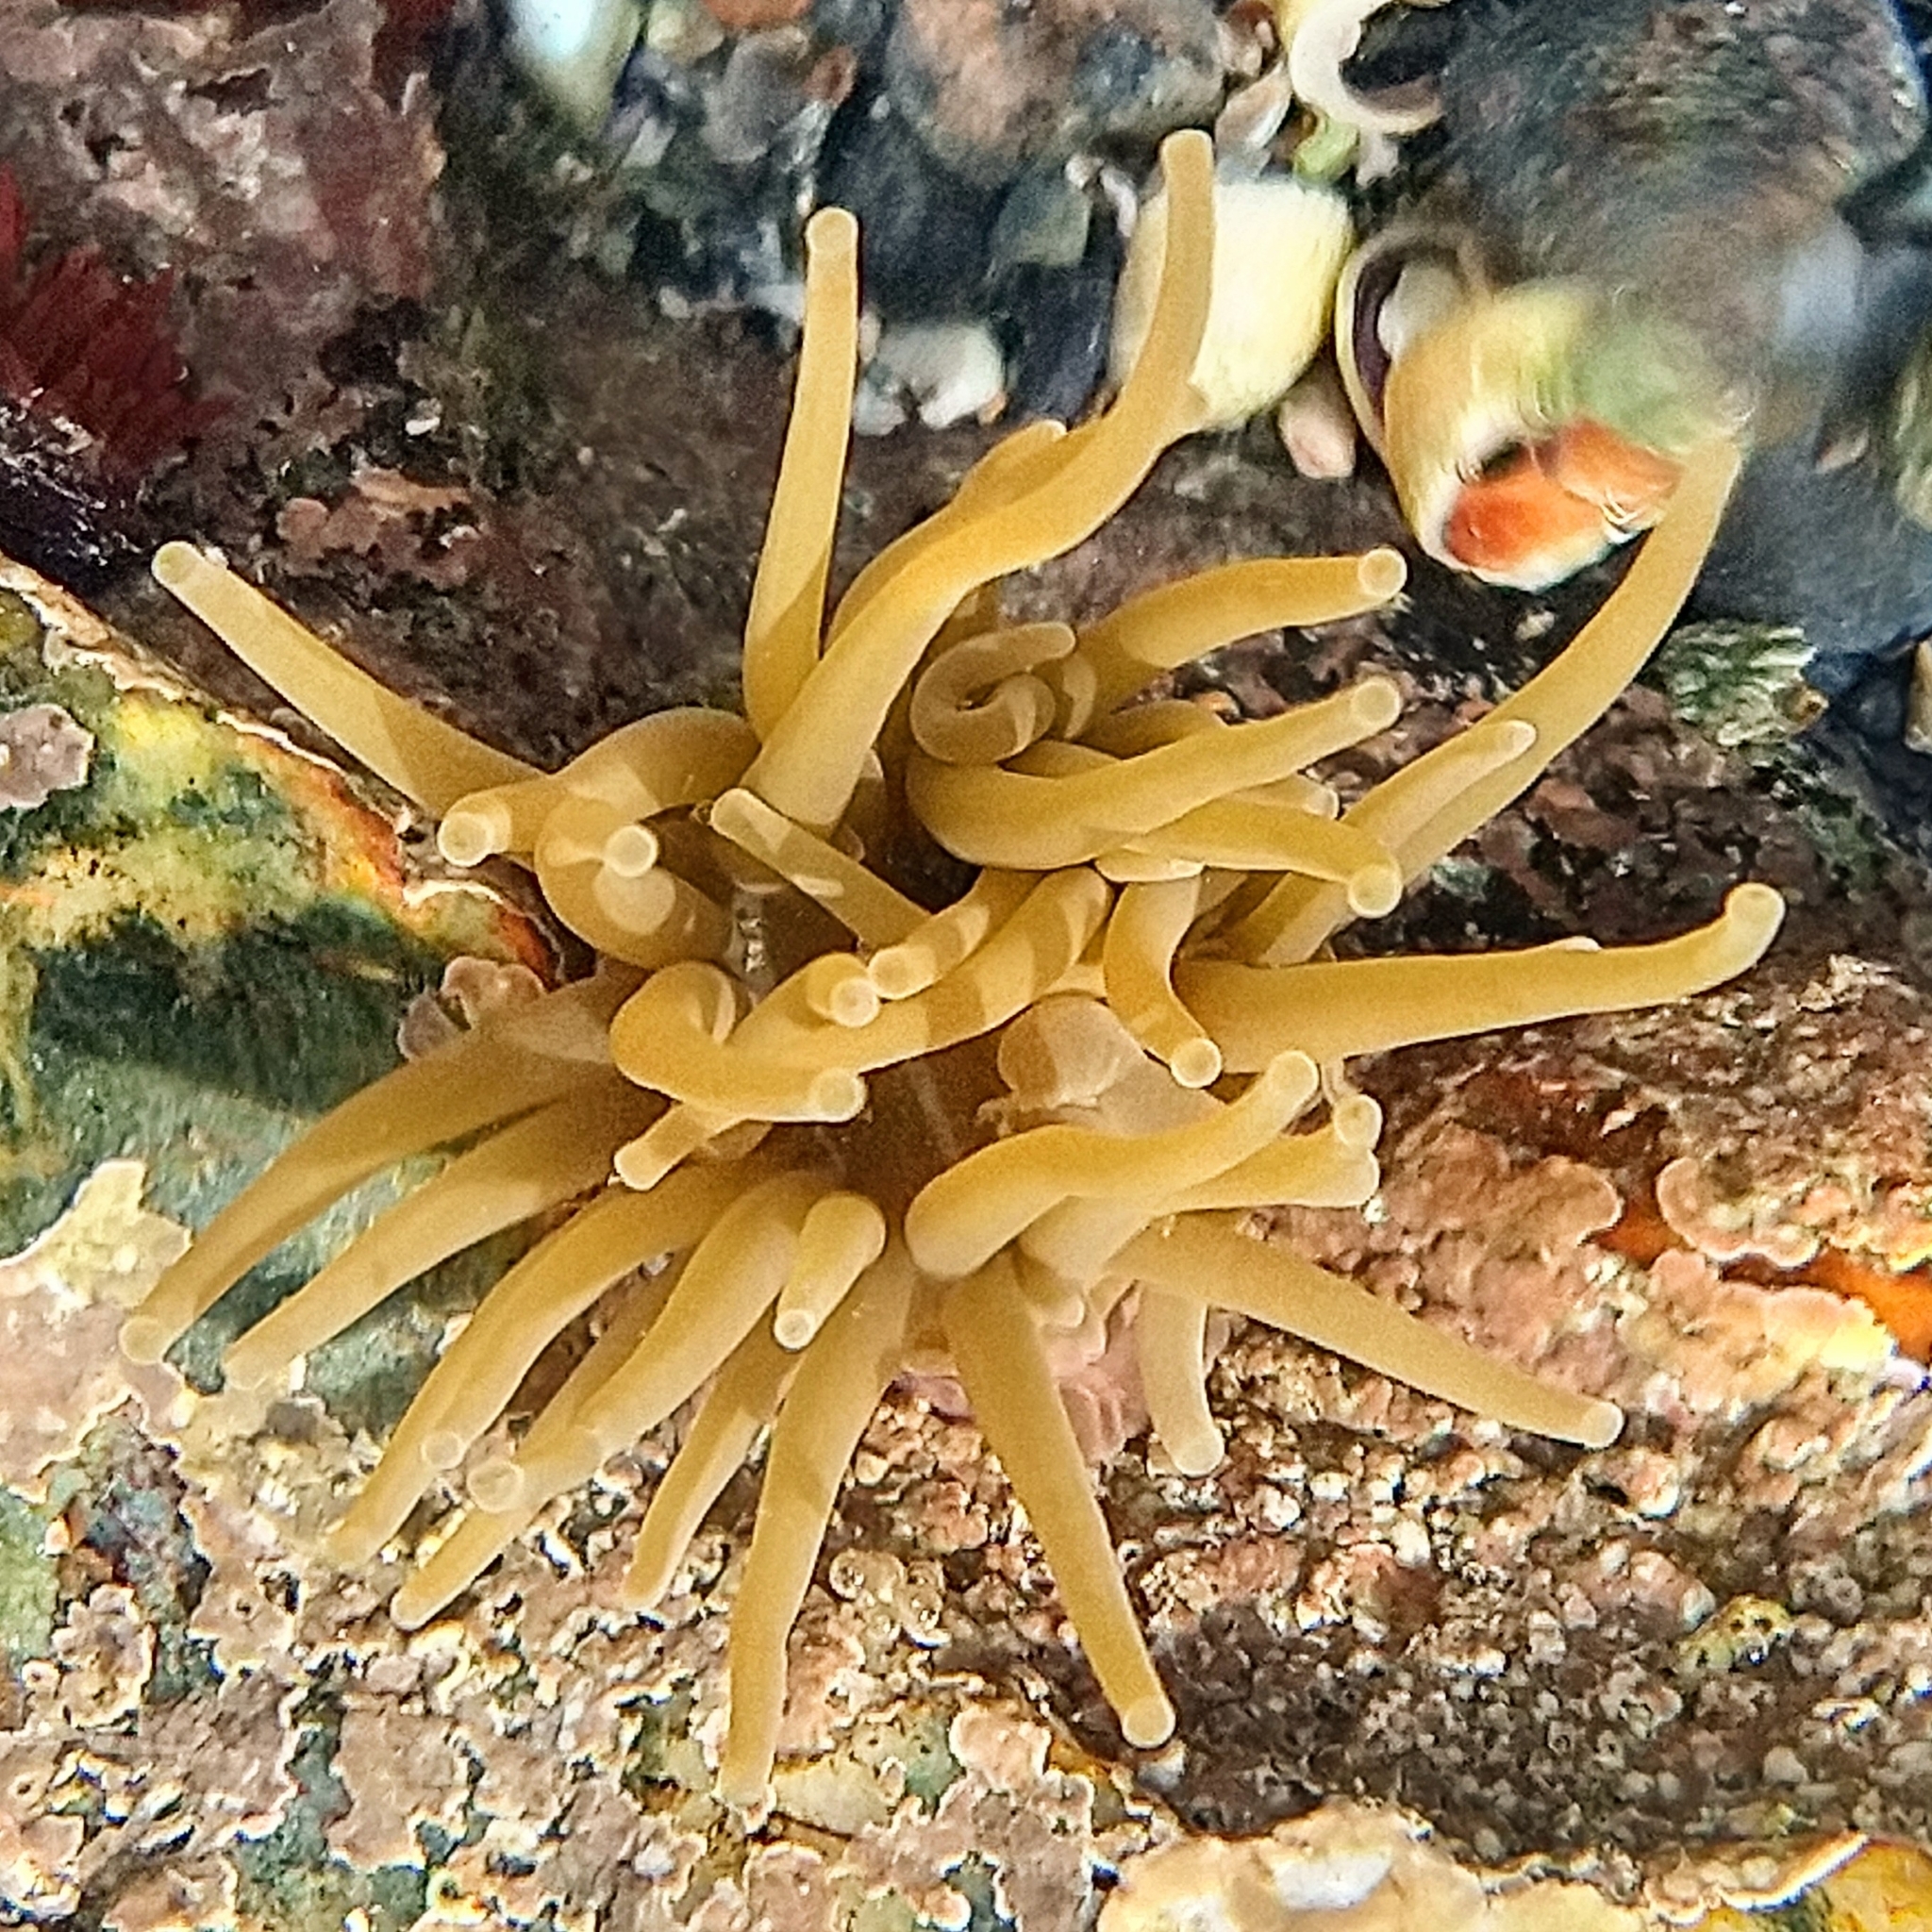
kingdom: Animalia
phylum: Cnidaria
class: Anthozoa
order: Actiniaria
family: Actiniidae
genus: Anemonia
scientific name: Anemonia viridis
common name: Snakelocks anemone
